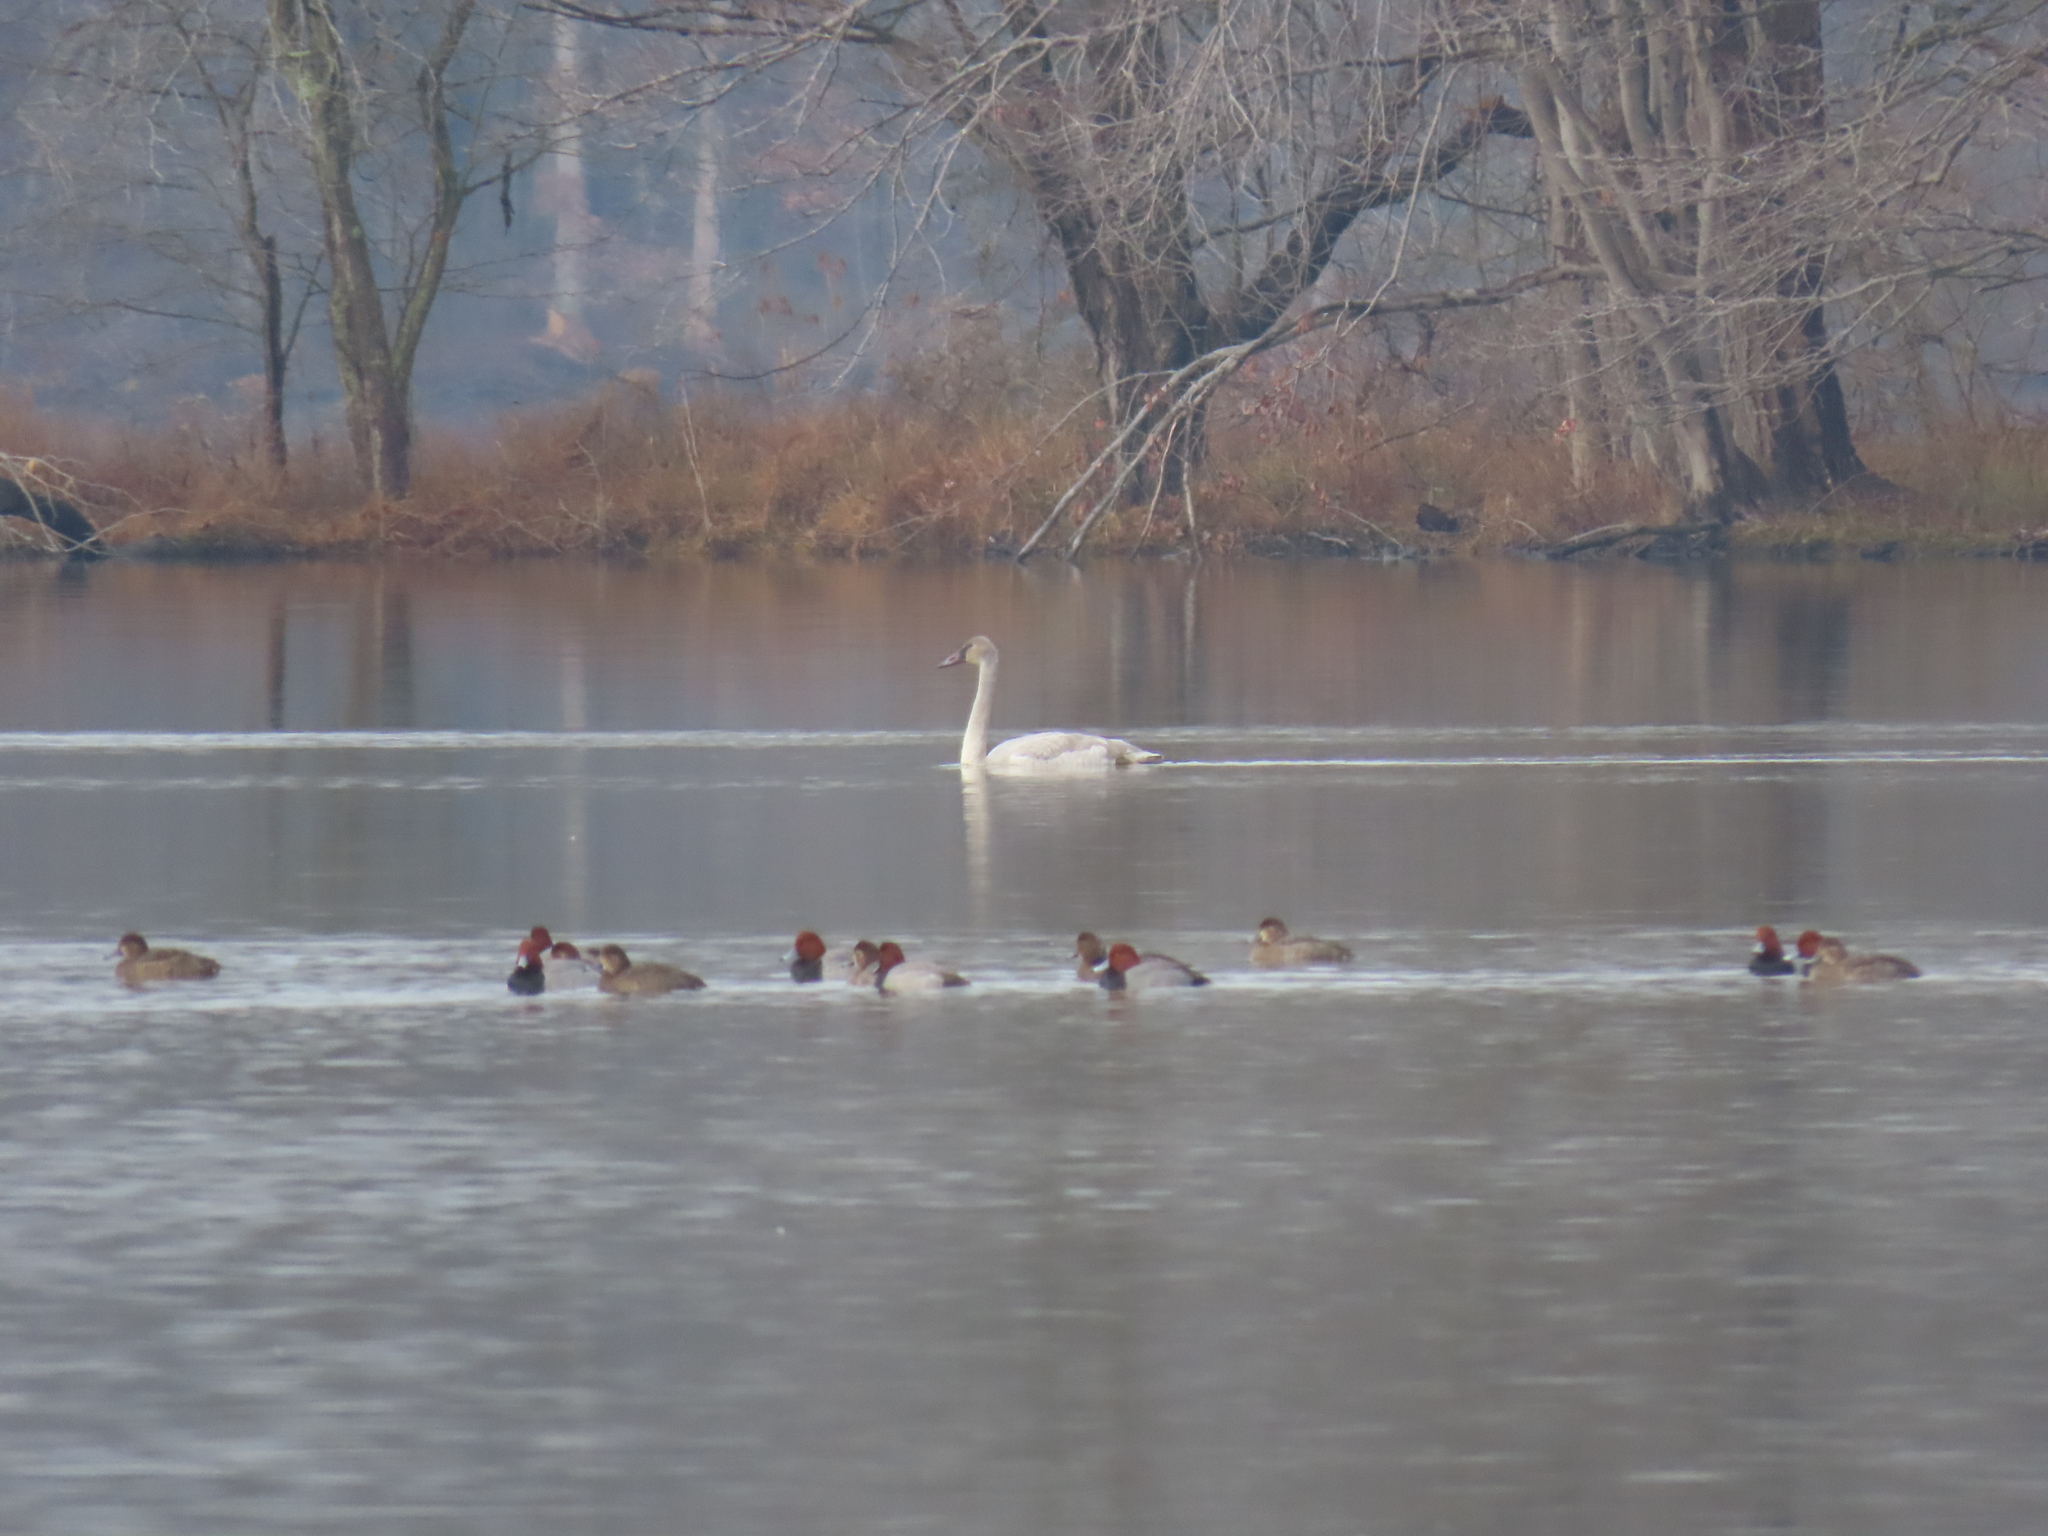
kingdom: Animalia
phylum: Chordata
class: Aves
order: Anseriformes
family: Anatidae
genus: Aythya
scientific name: Aythya americana
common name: Redhead
